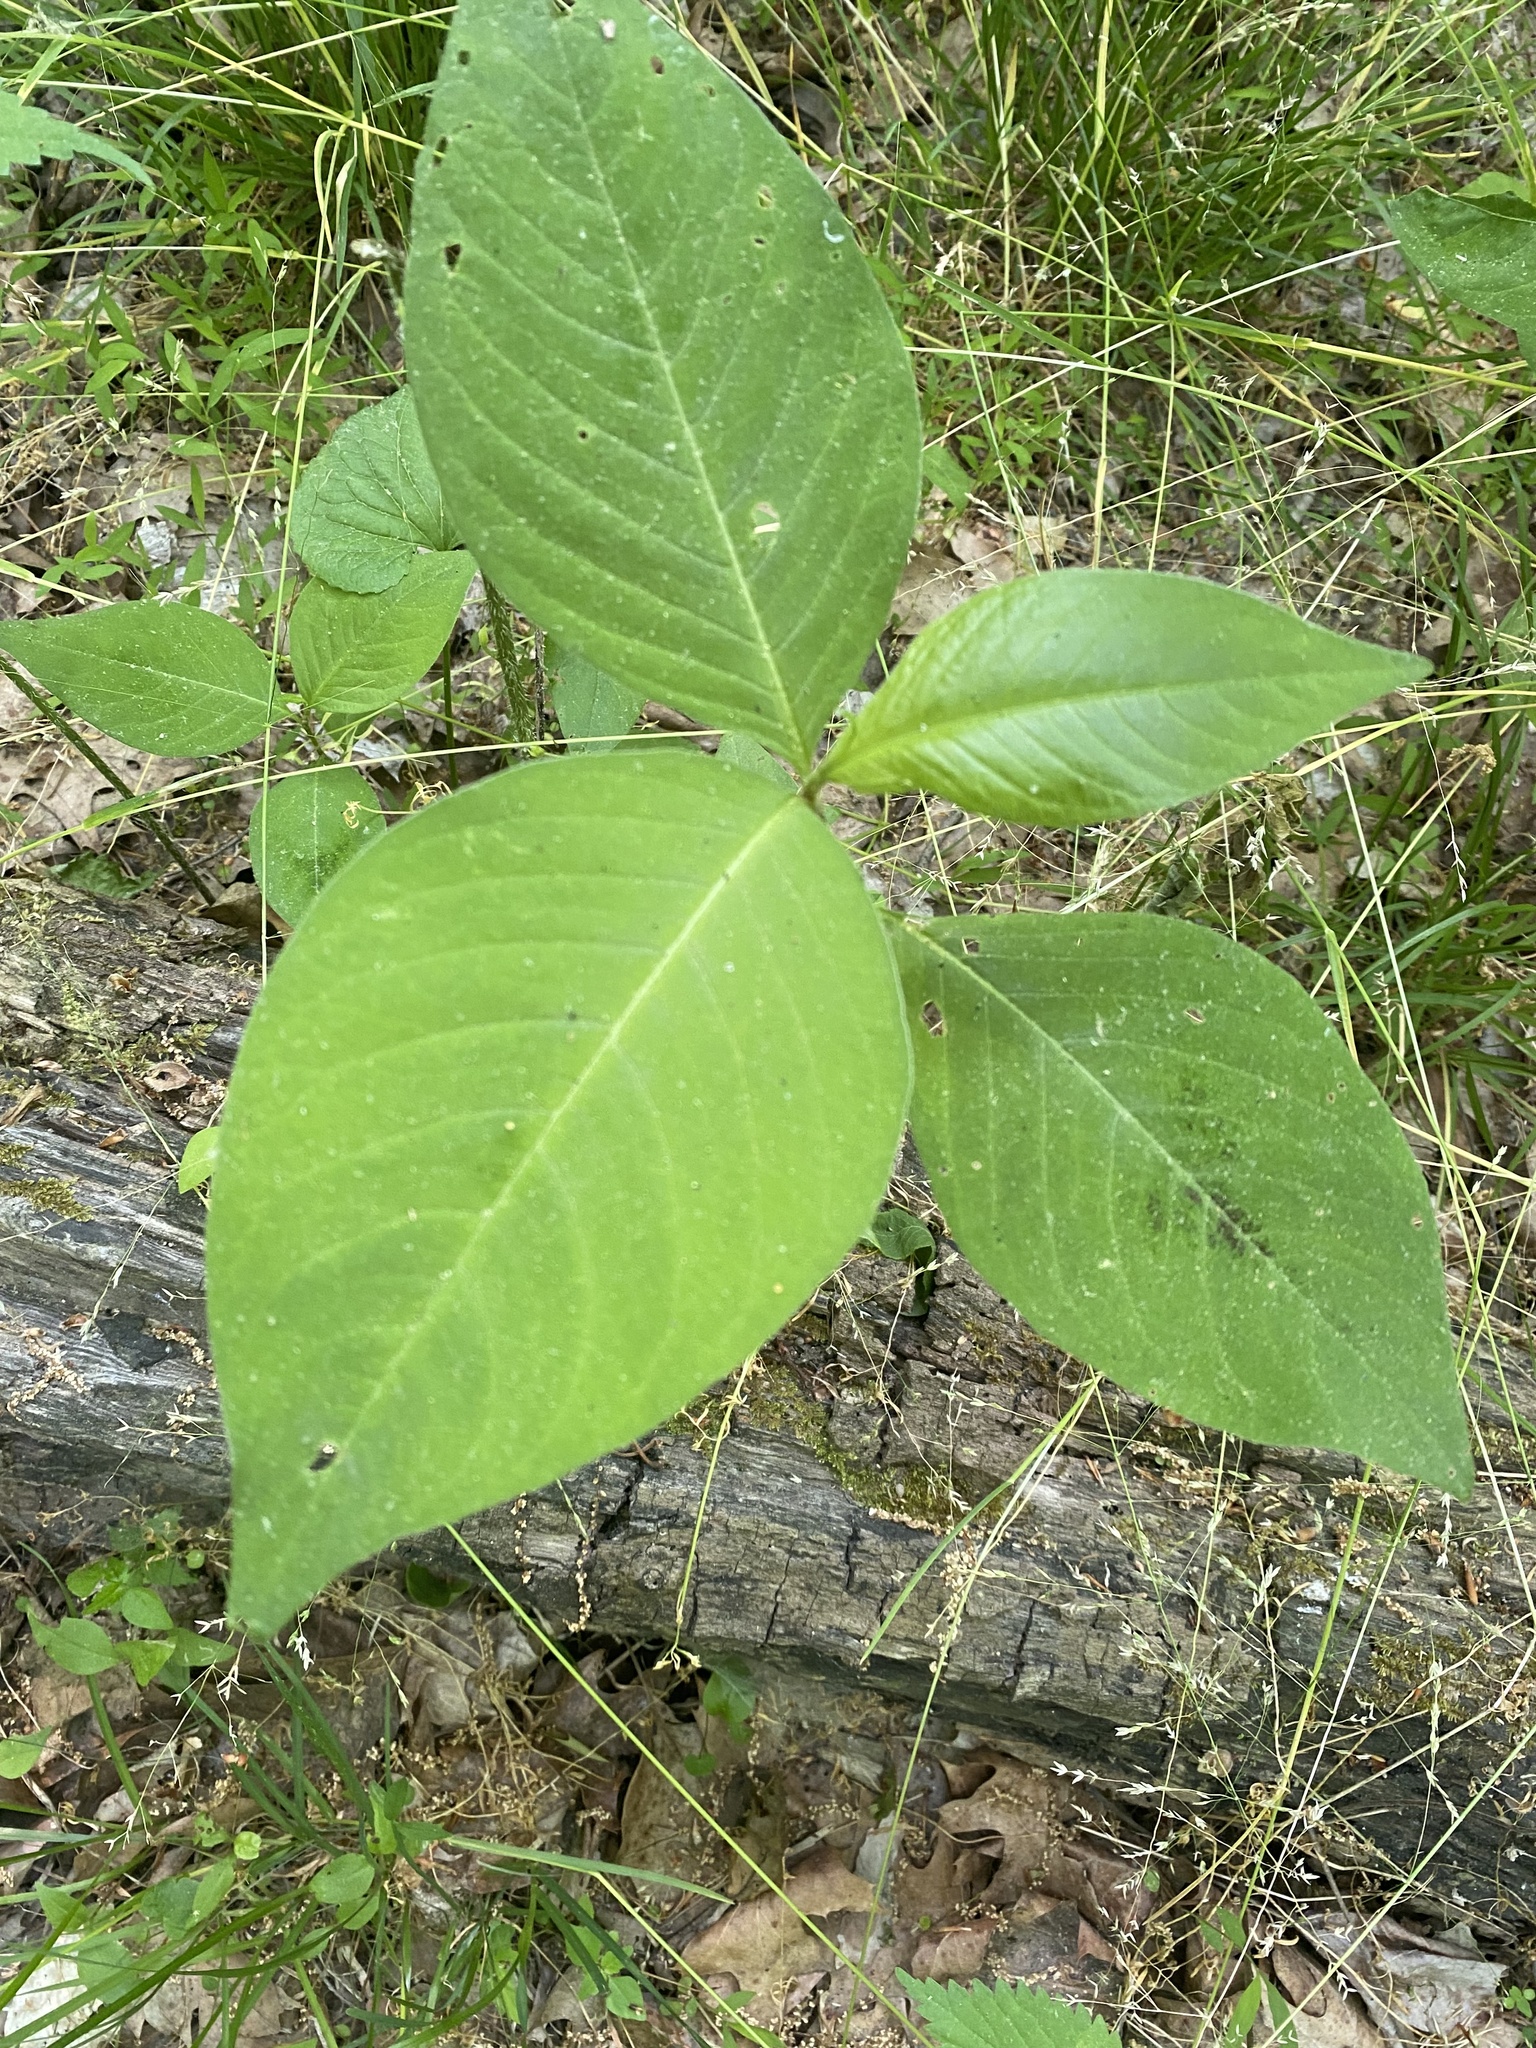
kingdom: Plantae
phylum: Tracheophyta
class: Magnoliopsida
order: Caryophyllales
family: Polygonaceae
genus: Persicaria
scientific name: Persicaria virginiana
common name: Jumpseed
